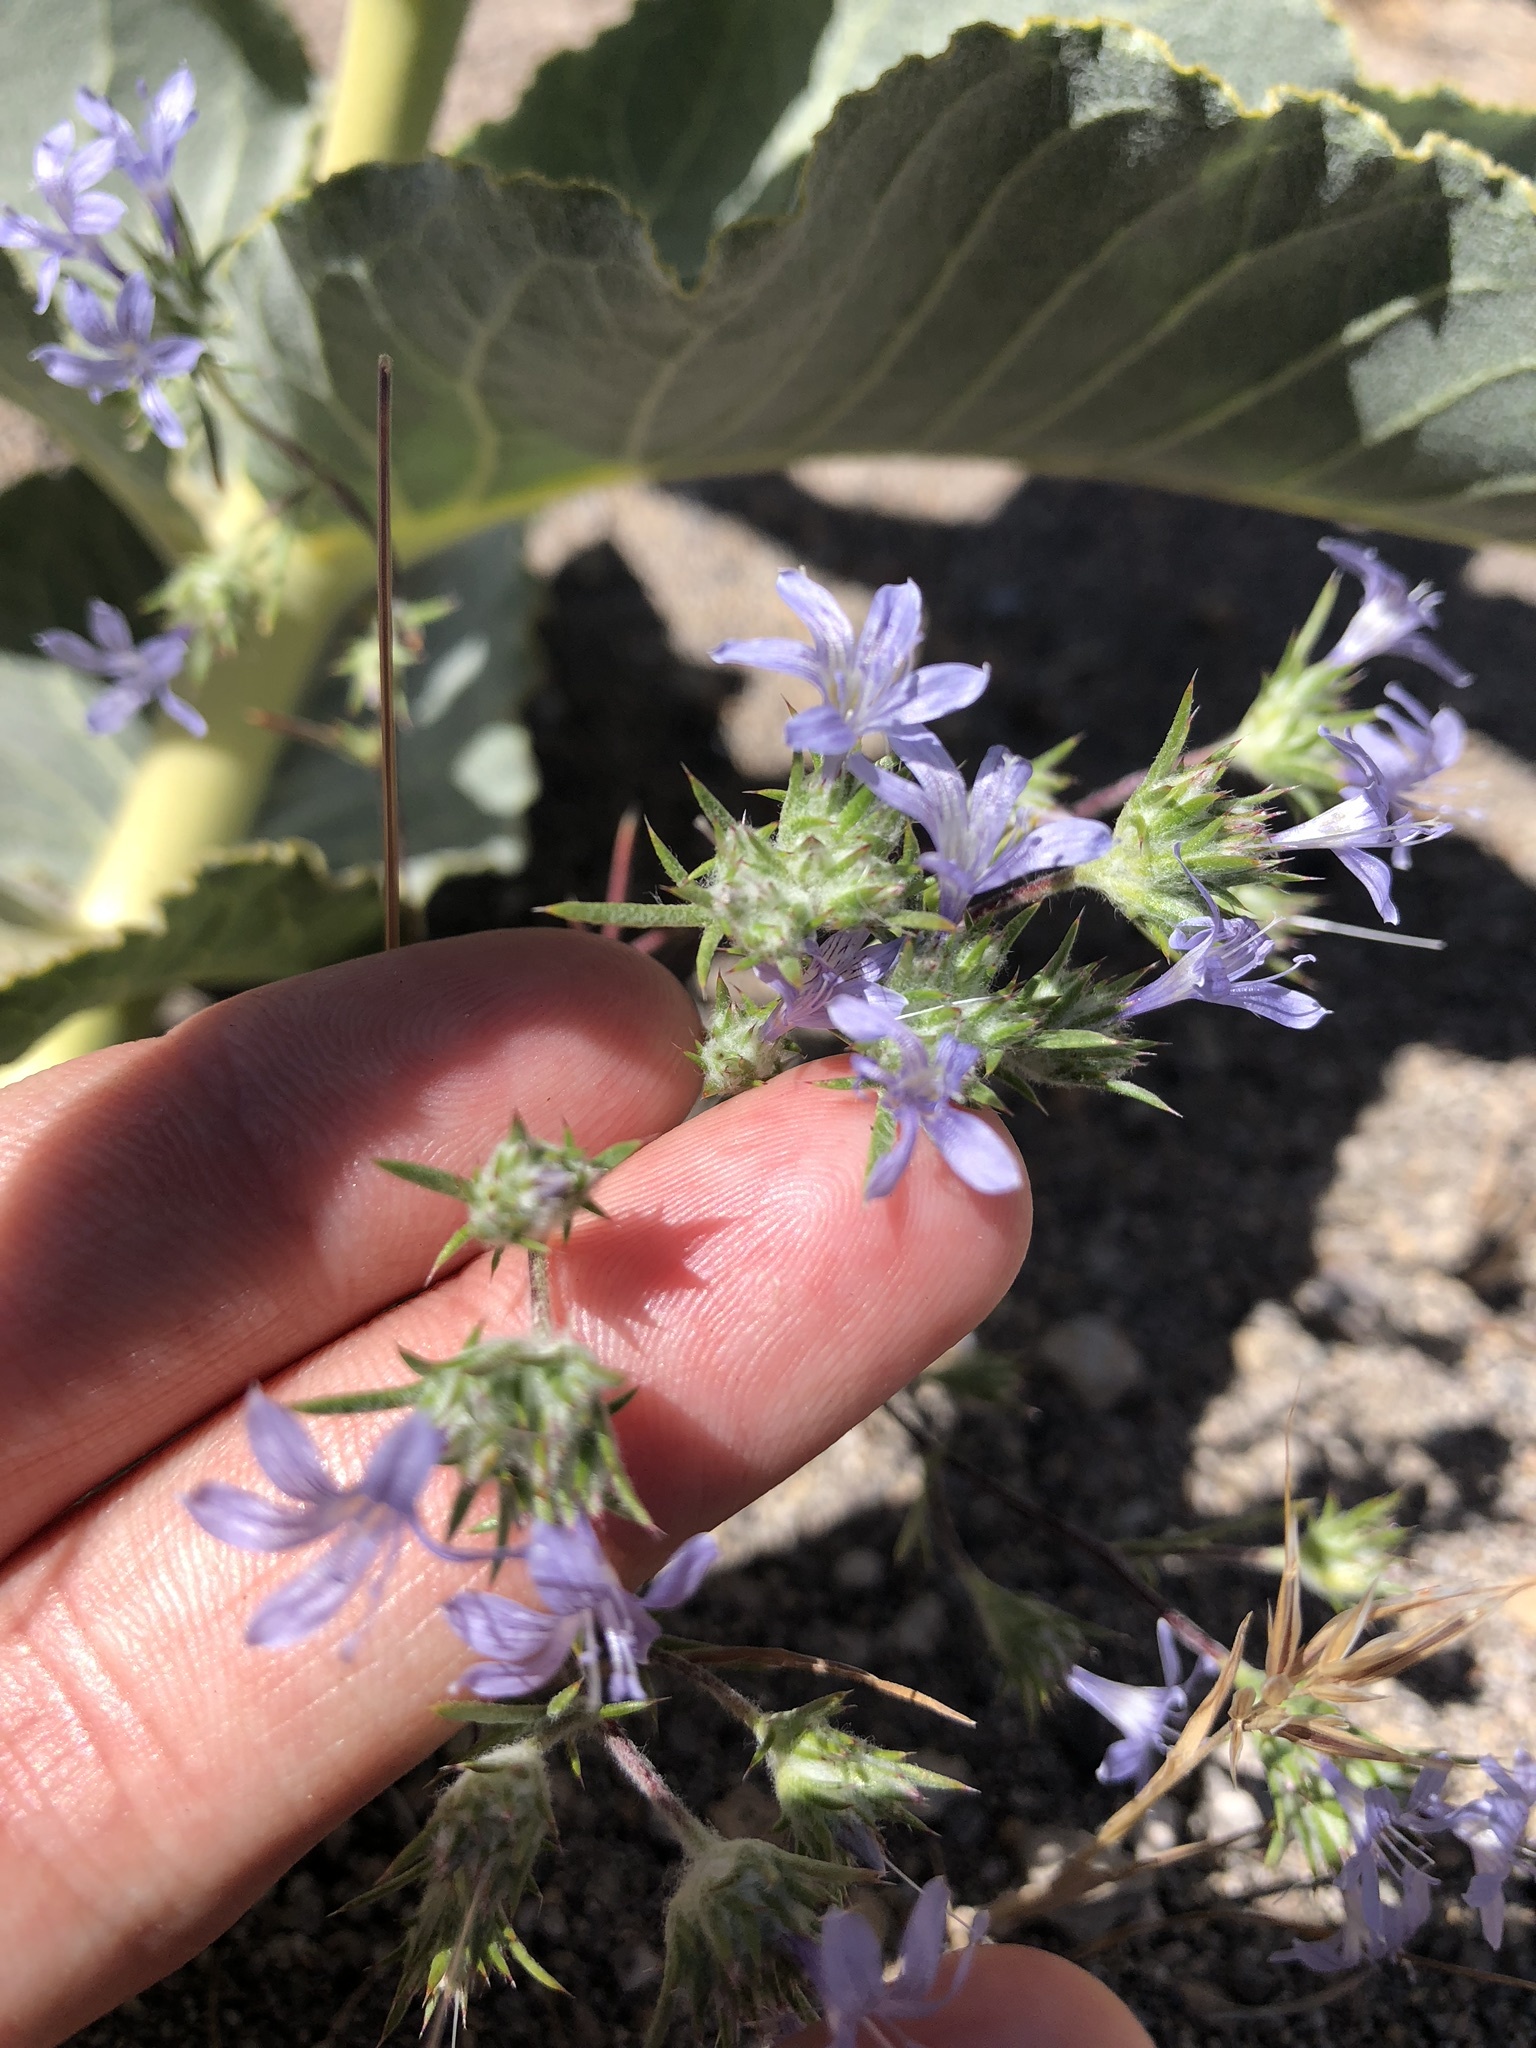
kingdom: Plantae
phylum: Tracheophyta
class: Magnoliopsida
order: Ericales
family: Polemoniaceae
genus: Eriastrum
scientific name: Eriastrum eremicum
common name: Desert eriastrum
